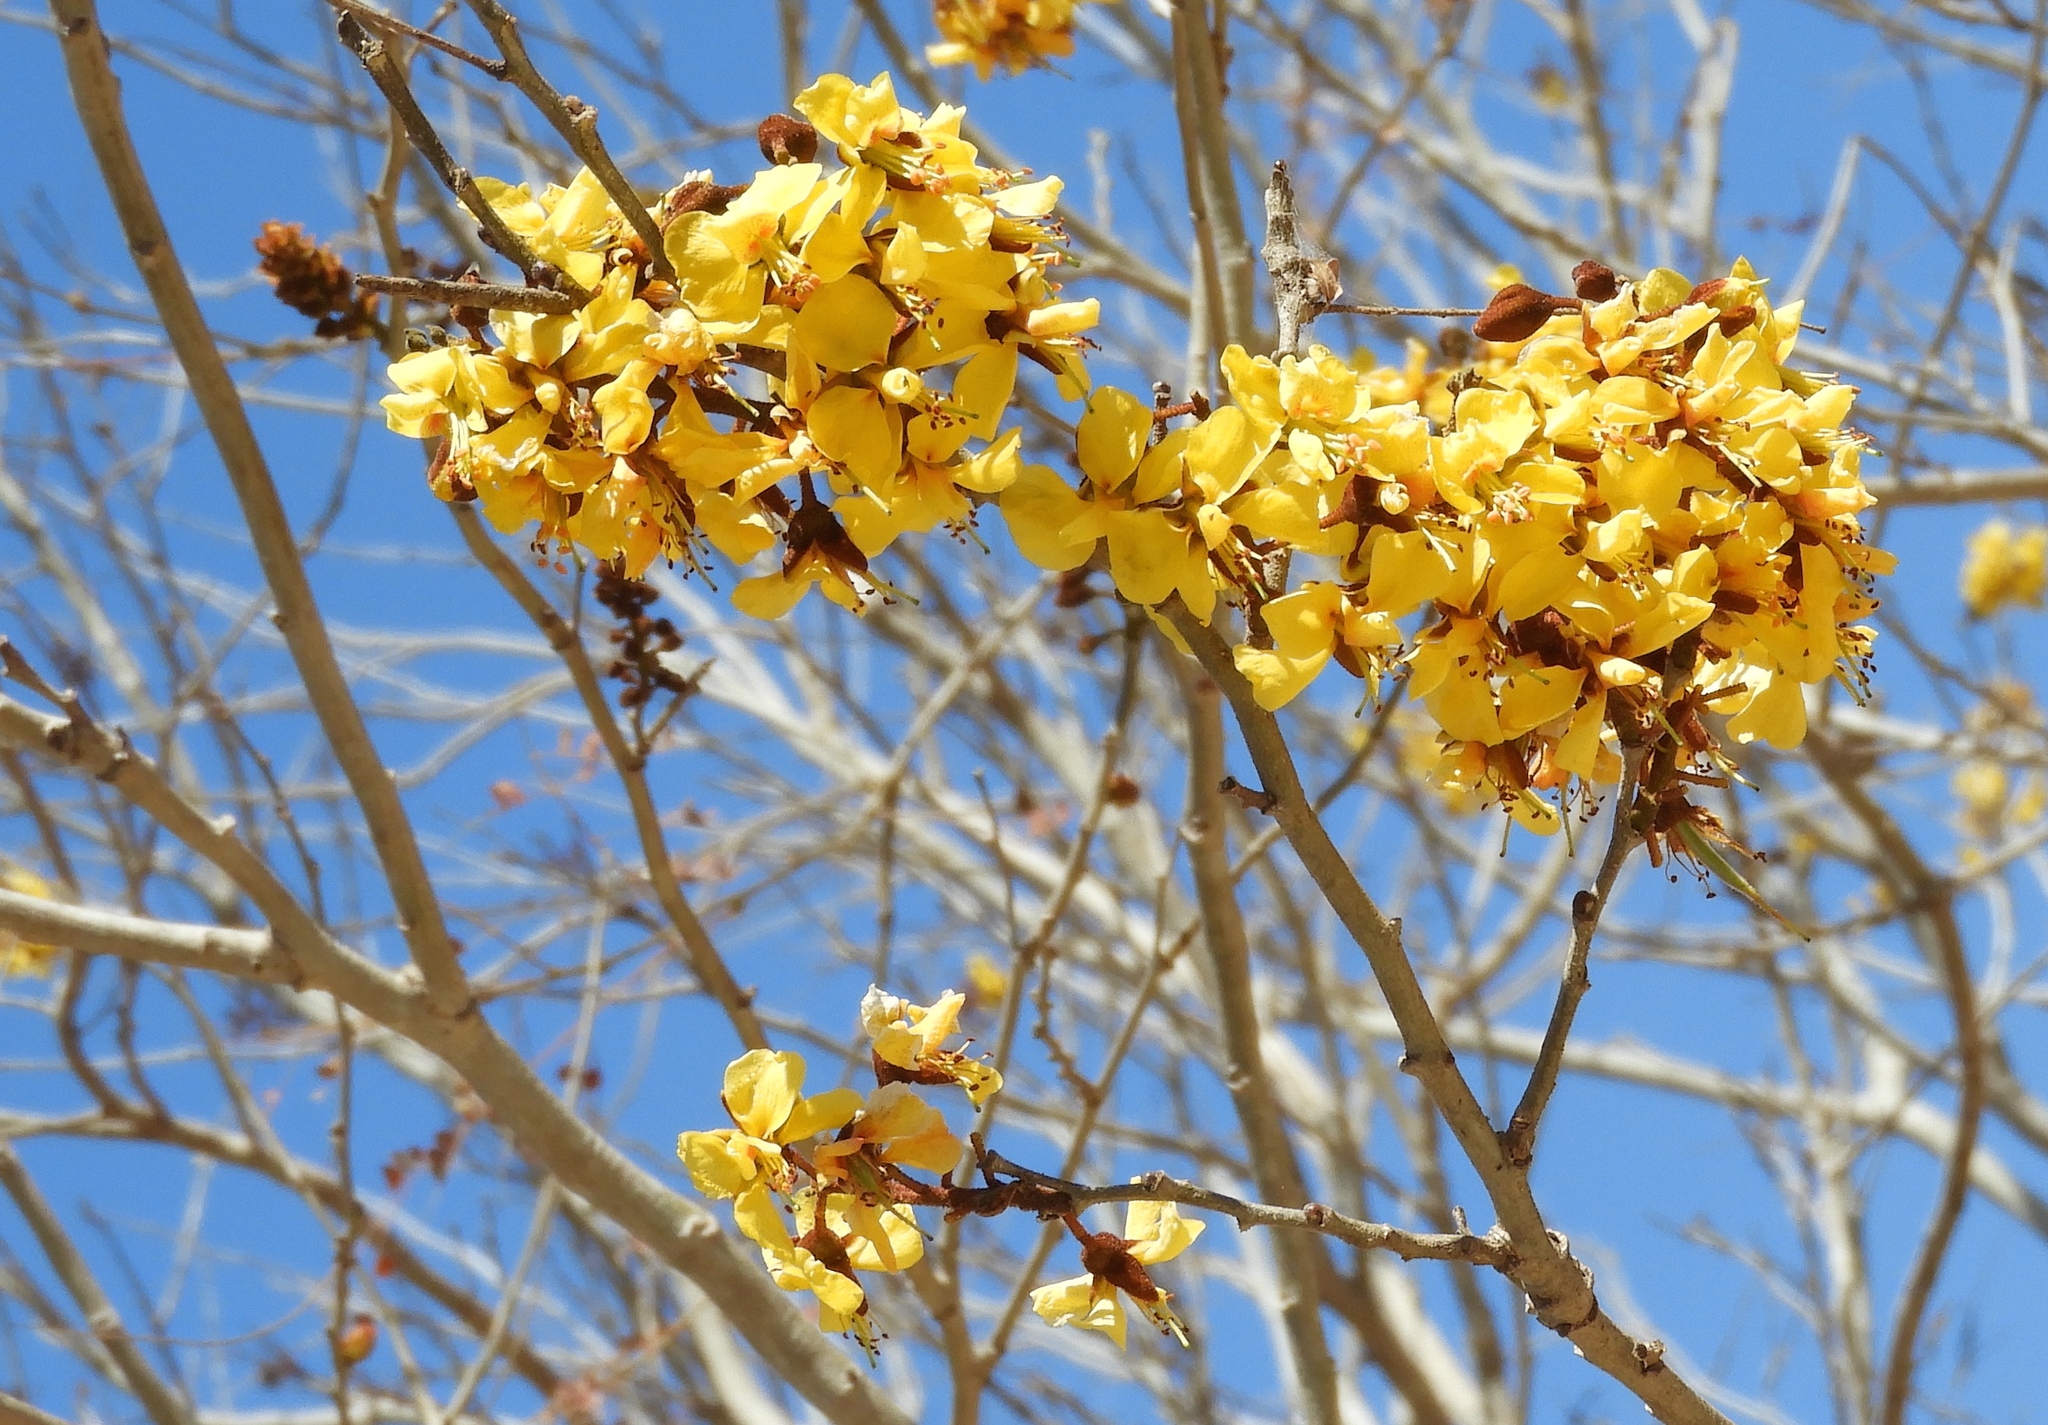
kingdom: Plantae
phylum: Tracheophyta
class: Magnoliopsida
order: Fabales
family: Fabaceae
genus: Cenostigma
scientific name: Cenostigma eriostachys
